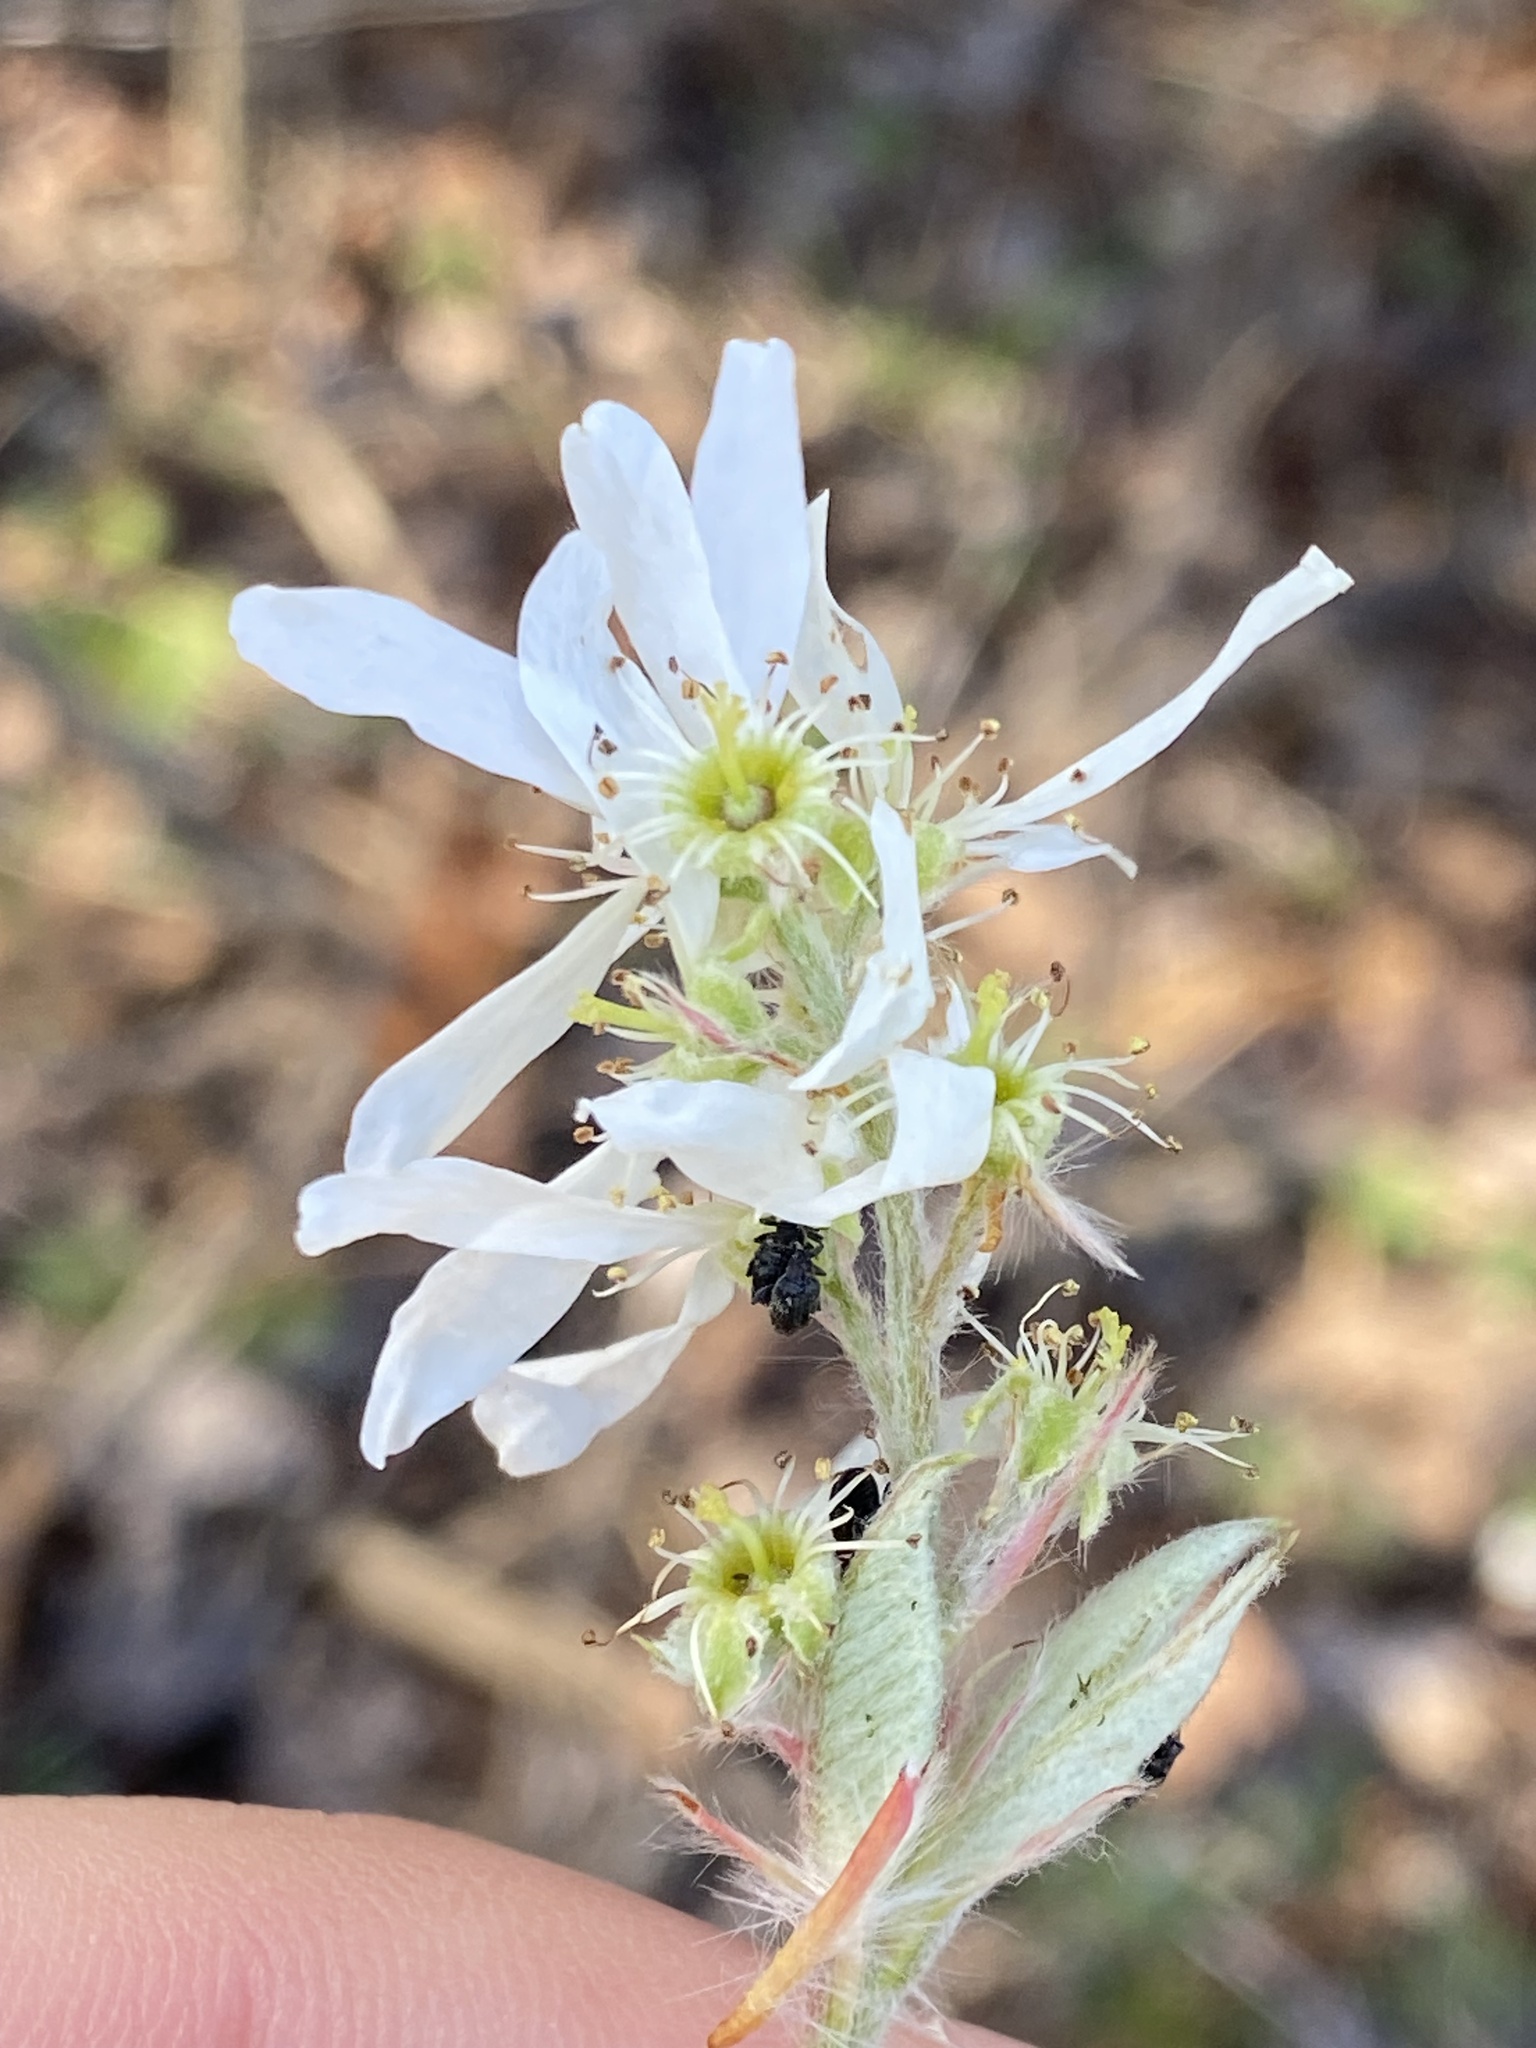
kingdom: Plantae
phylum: Tracheophyta
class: Magnoliopsida
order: Rosales
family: Rosaceae
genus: Amelanchier
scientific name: Amelanchier arborea
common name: Downy serviceberry
